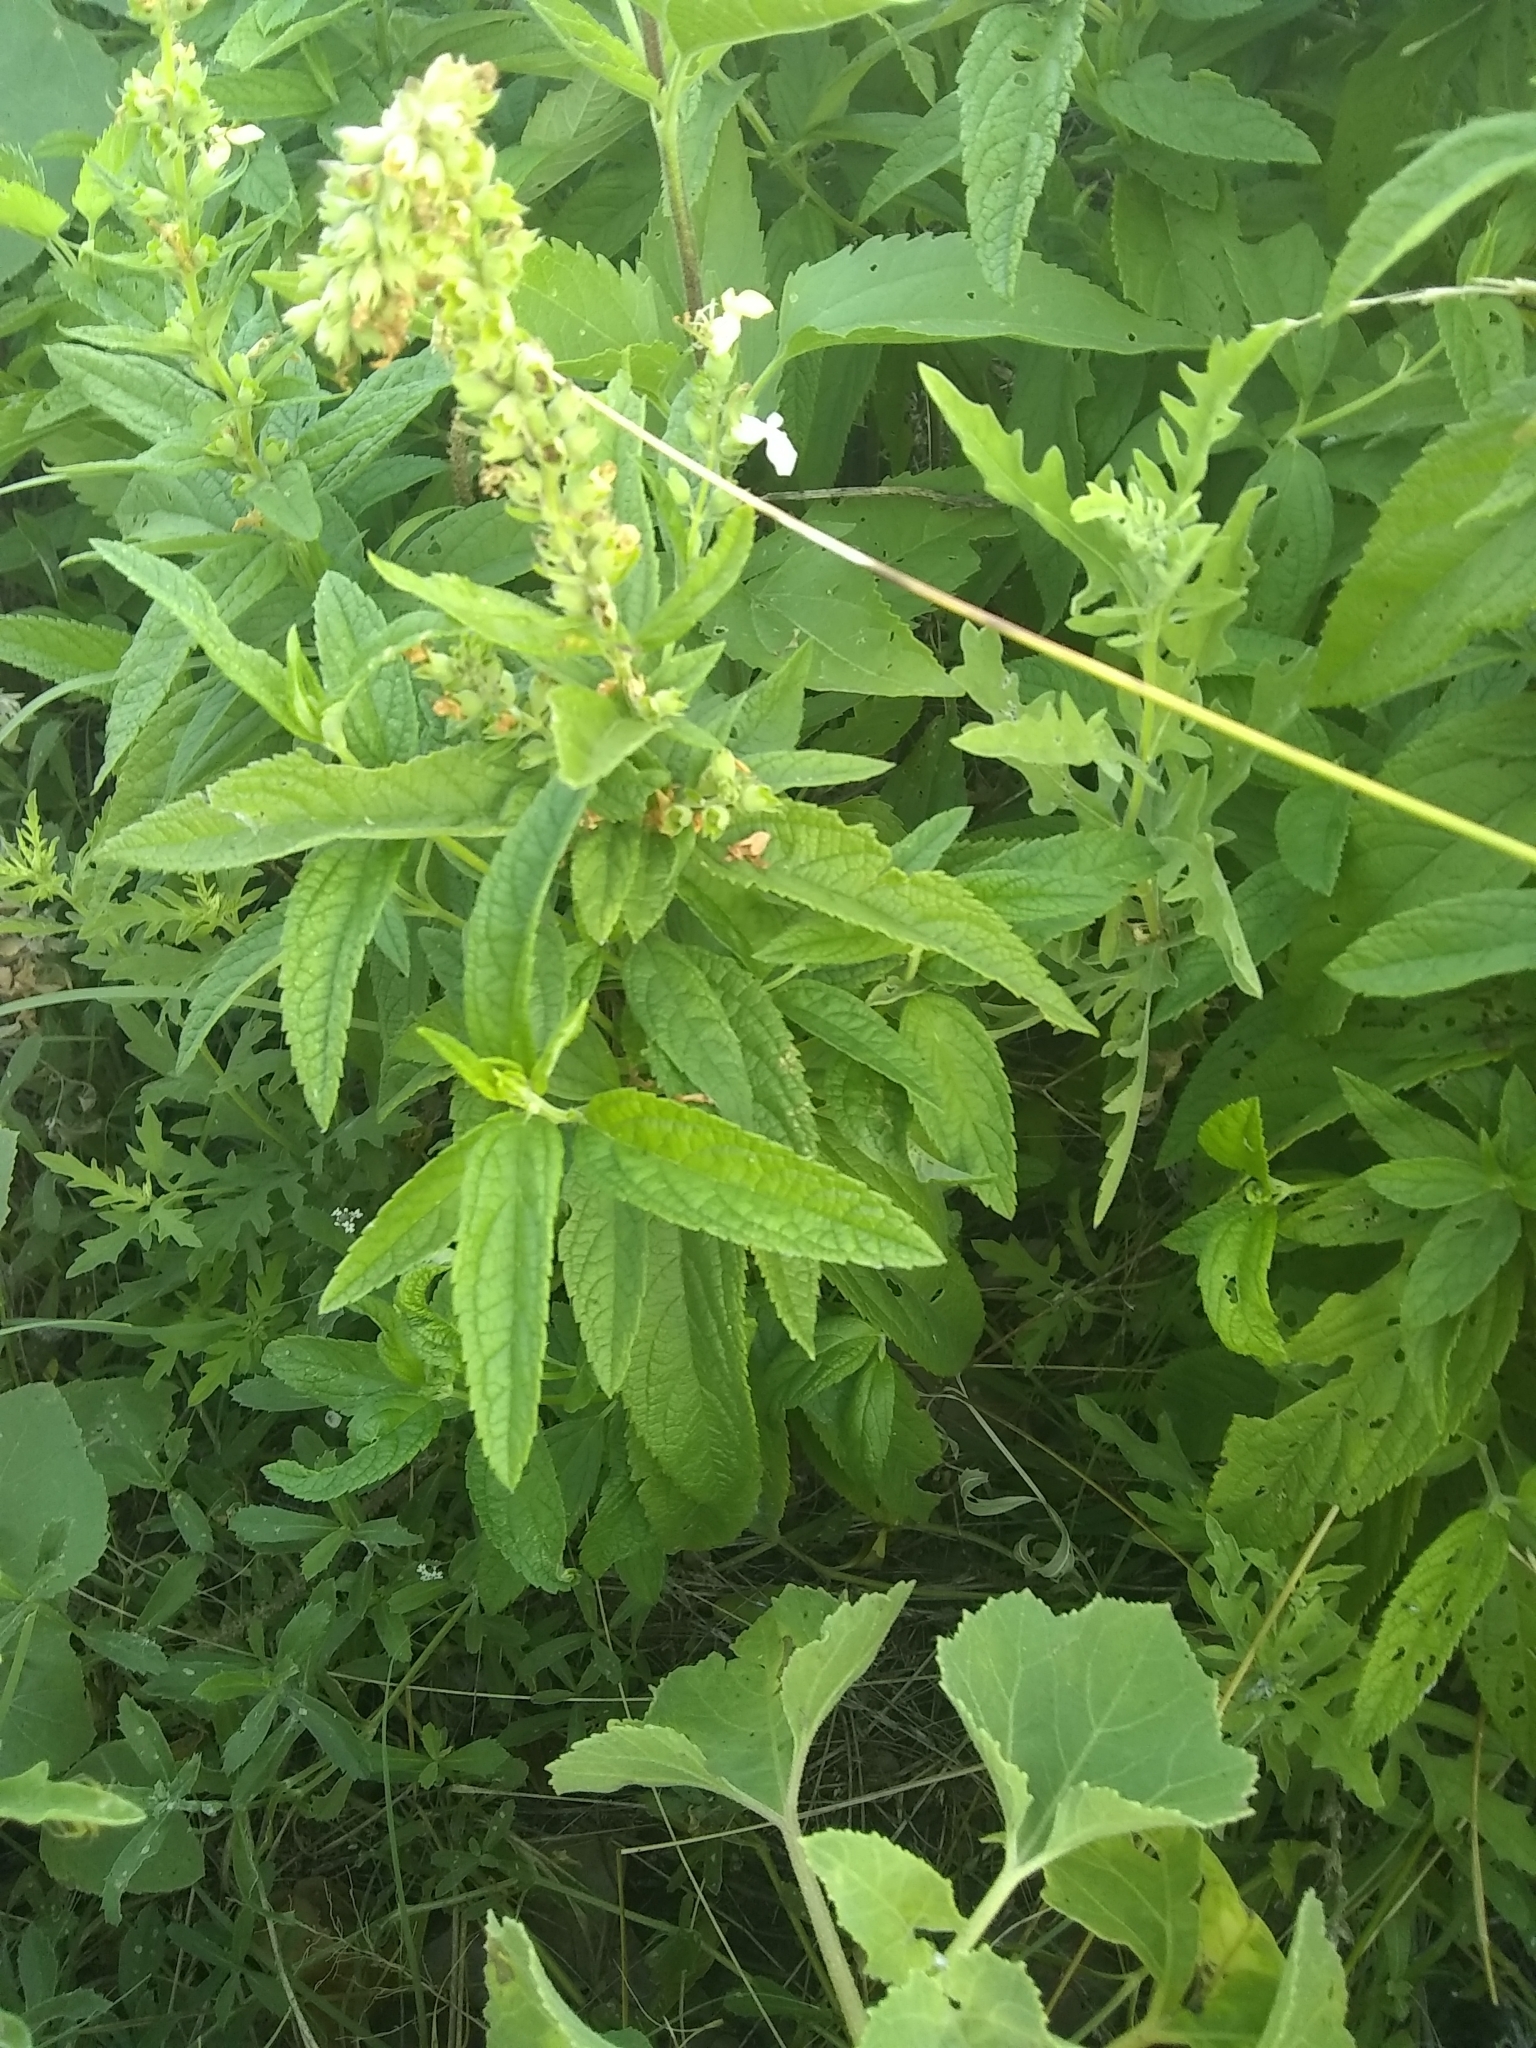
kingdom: Plantae
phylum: Tracheophyta
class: Magnoliopsida
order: Lamiales
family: Lamiaceae
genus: Teucrium
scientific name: Teucrium canadense
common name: American germander
